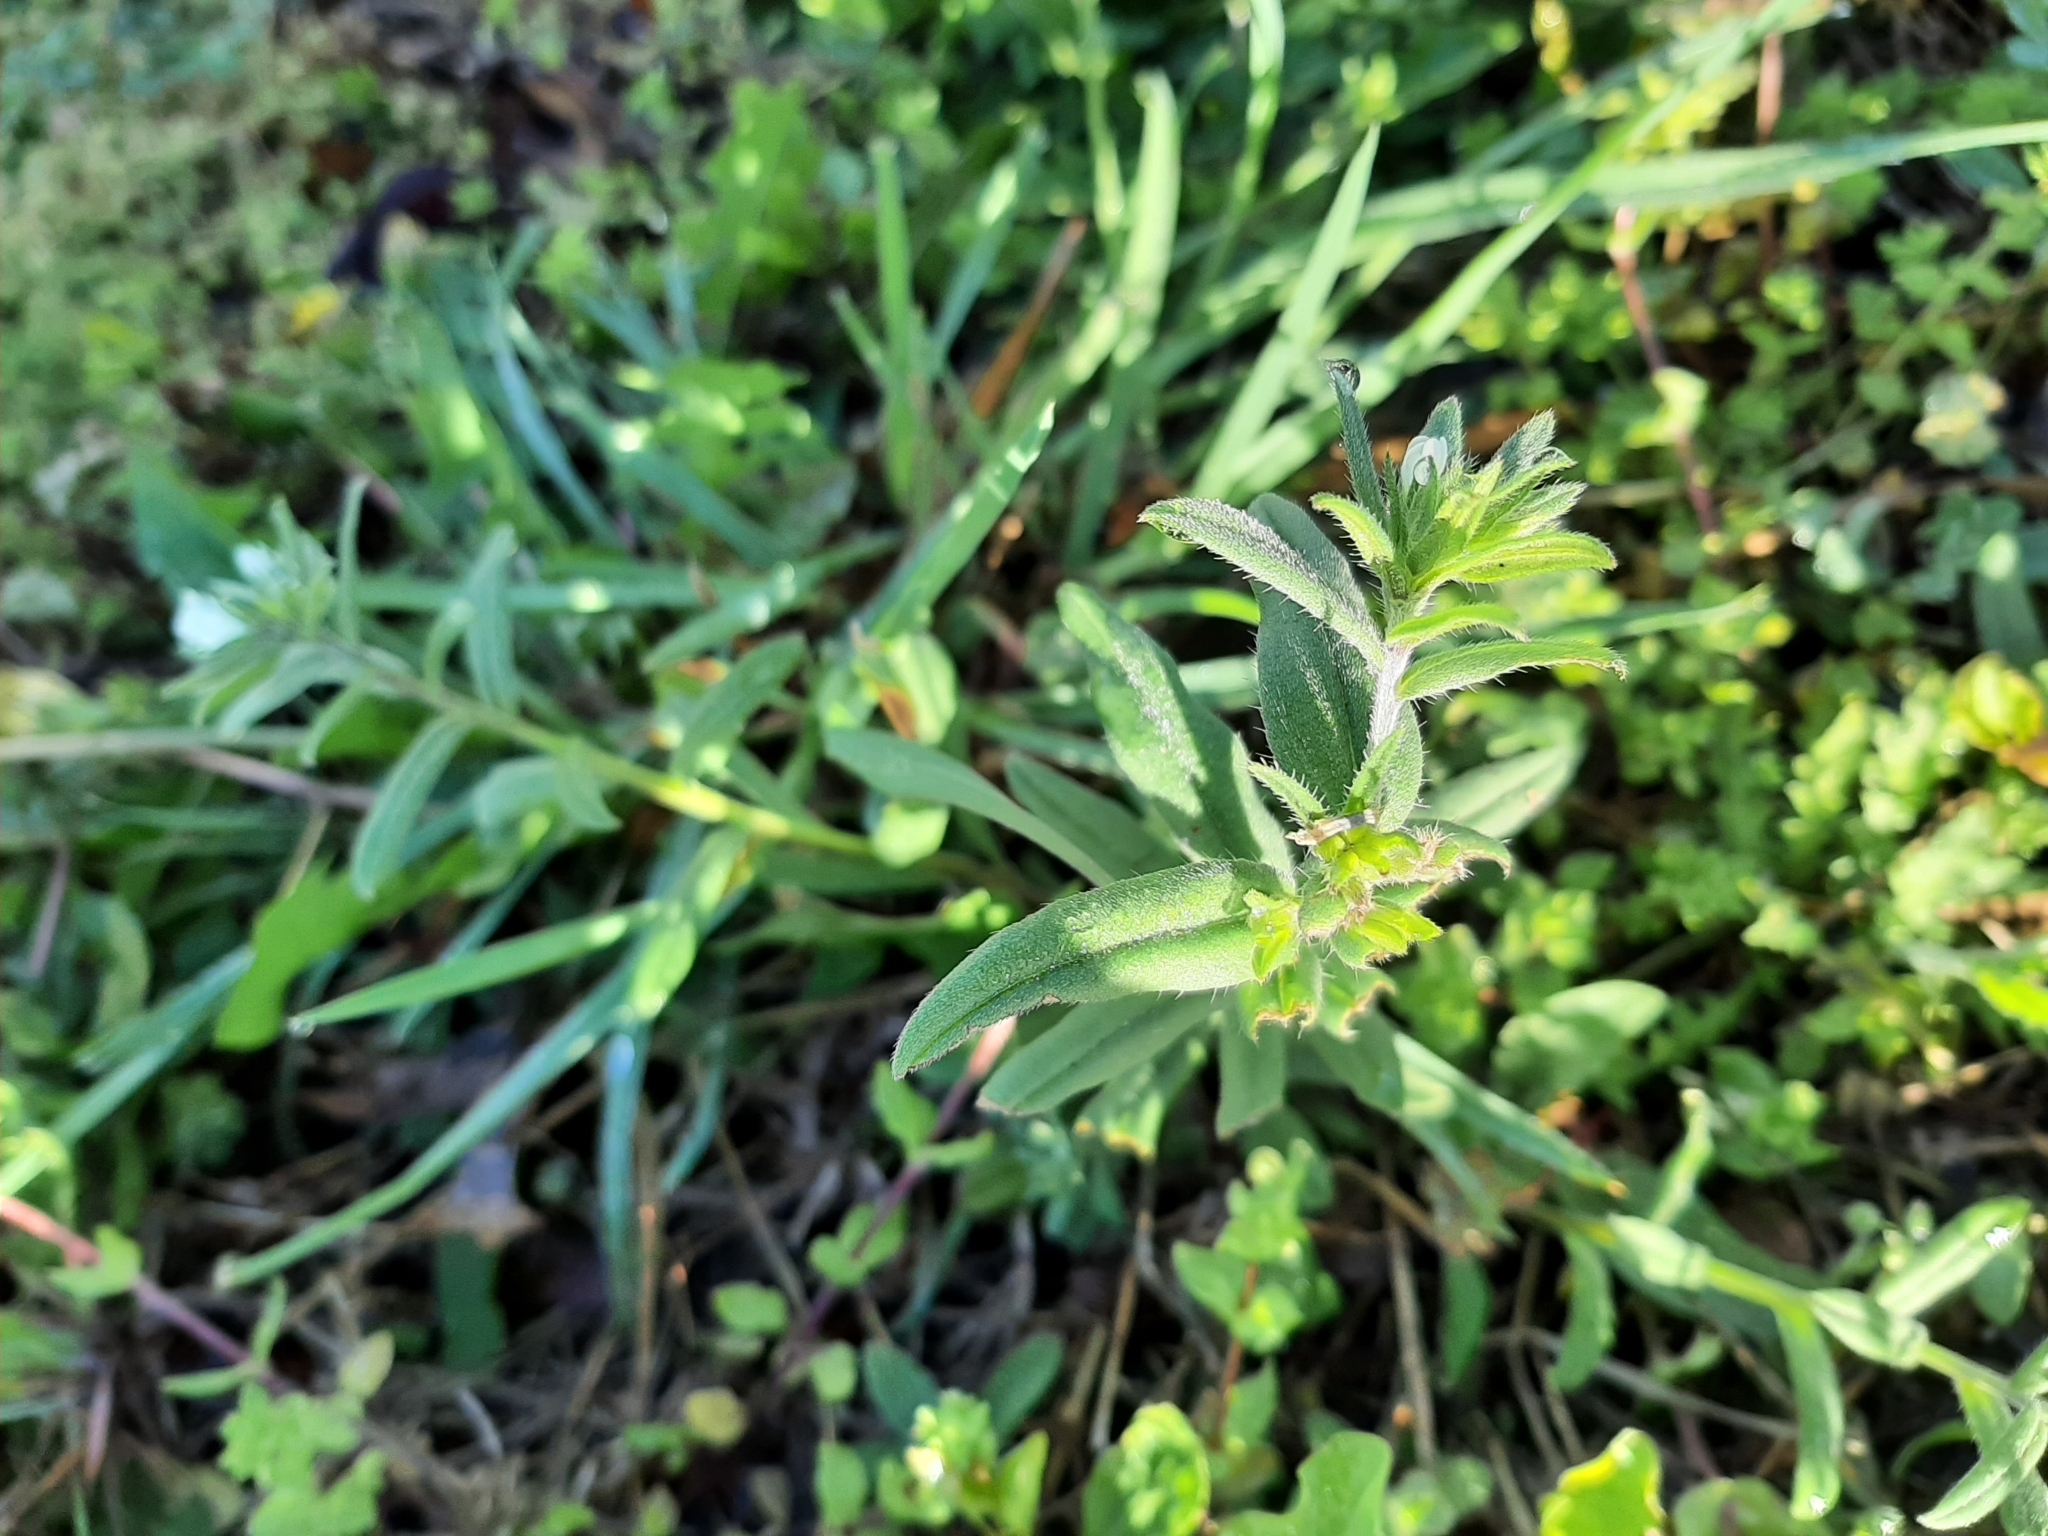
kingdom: Plantae
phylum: Tracheophyta
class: Magnoliopsida
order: Boraginales
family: Boraginaceae
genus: Buglossoides
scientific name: Buglossoides arvensis
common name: Corn gromwell
